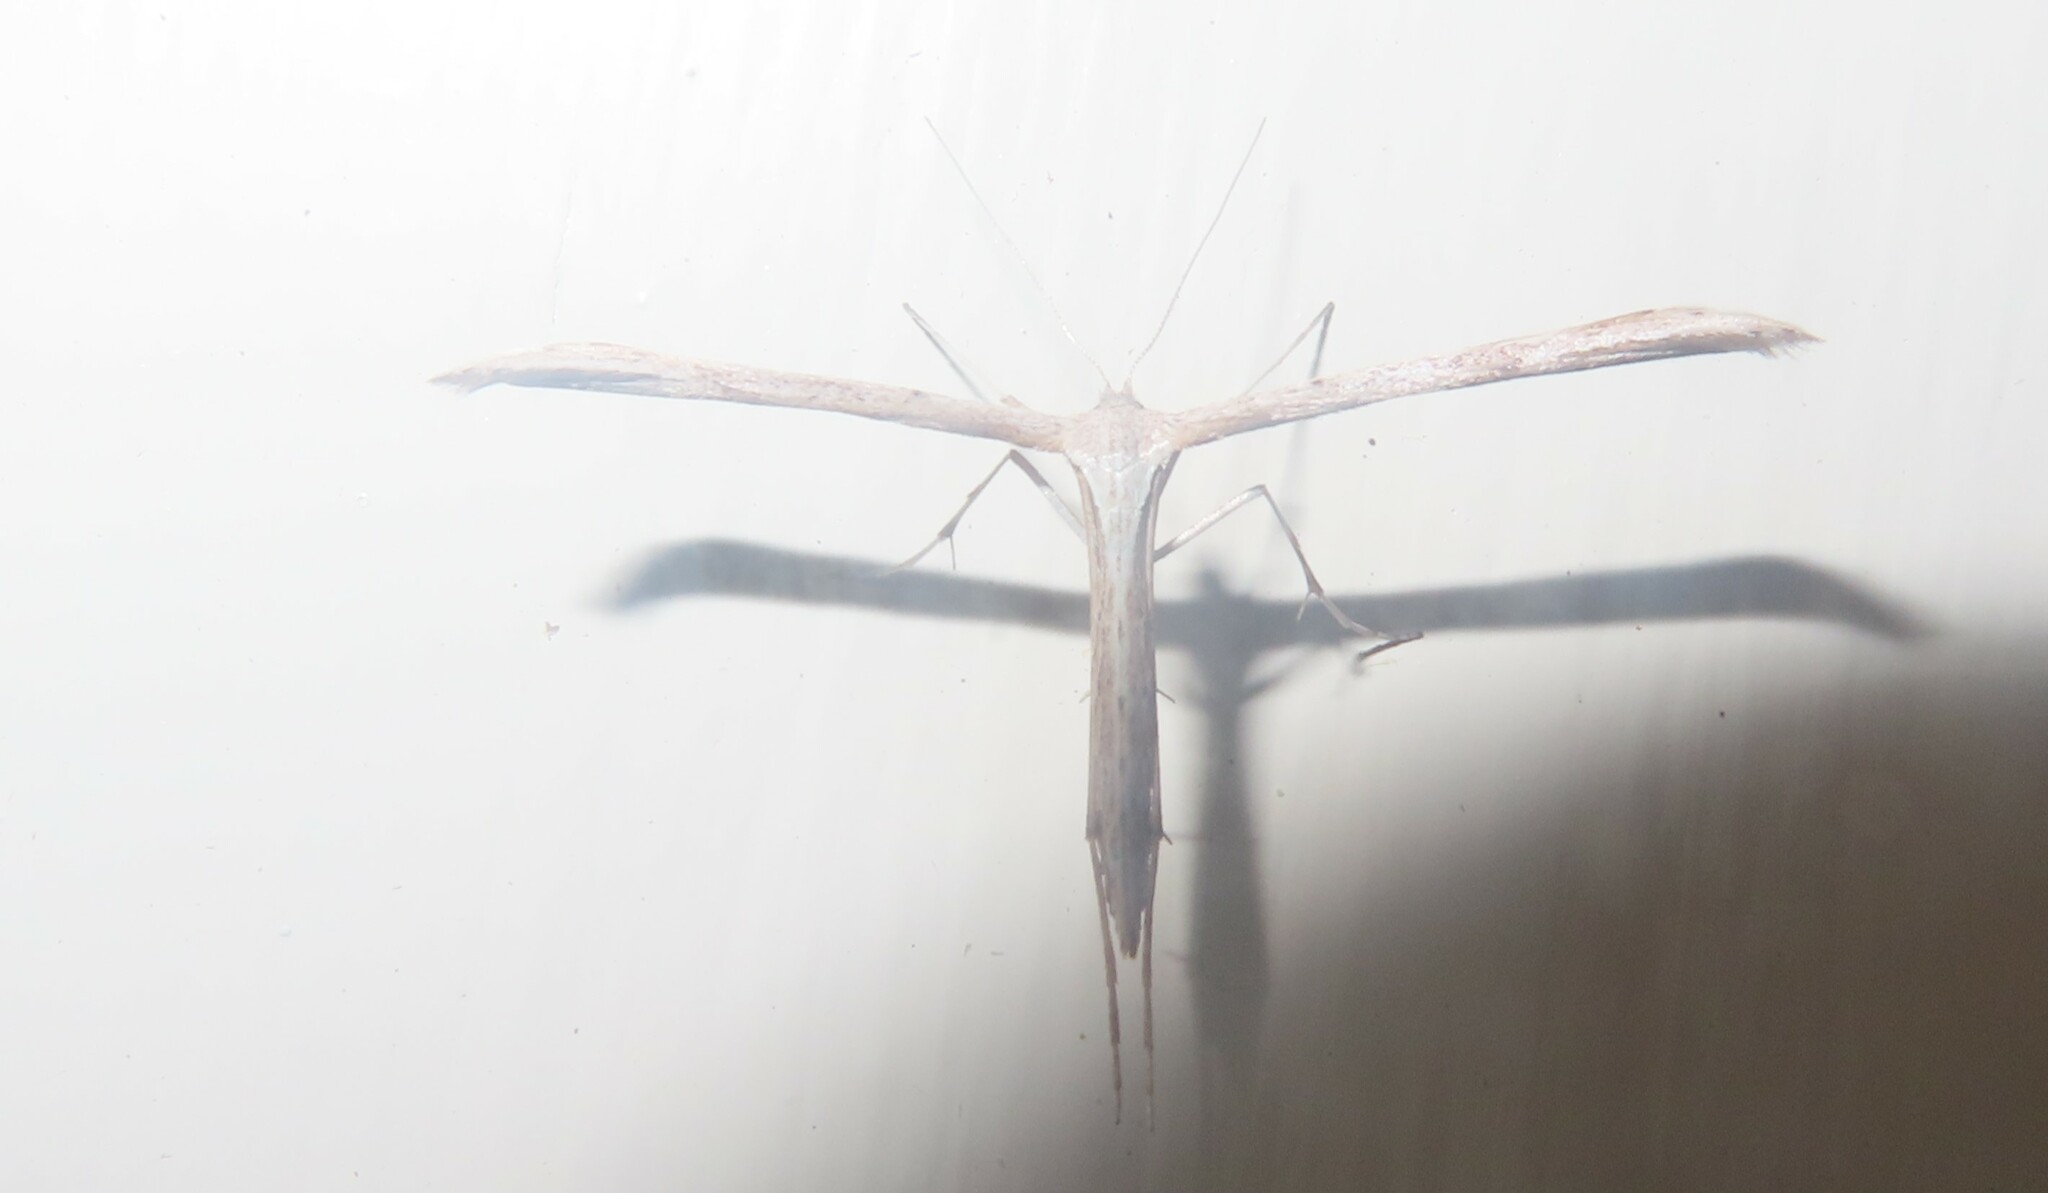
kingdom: Animalia
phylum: Arthropoda
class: Insecta
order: Lepidoptera
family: Pterophoridae
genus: Emmelina
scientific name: Emmelina monodactyla
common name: Common plume
